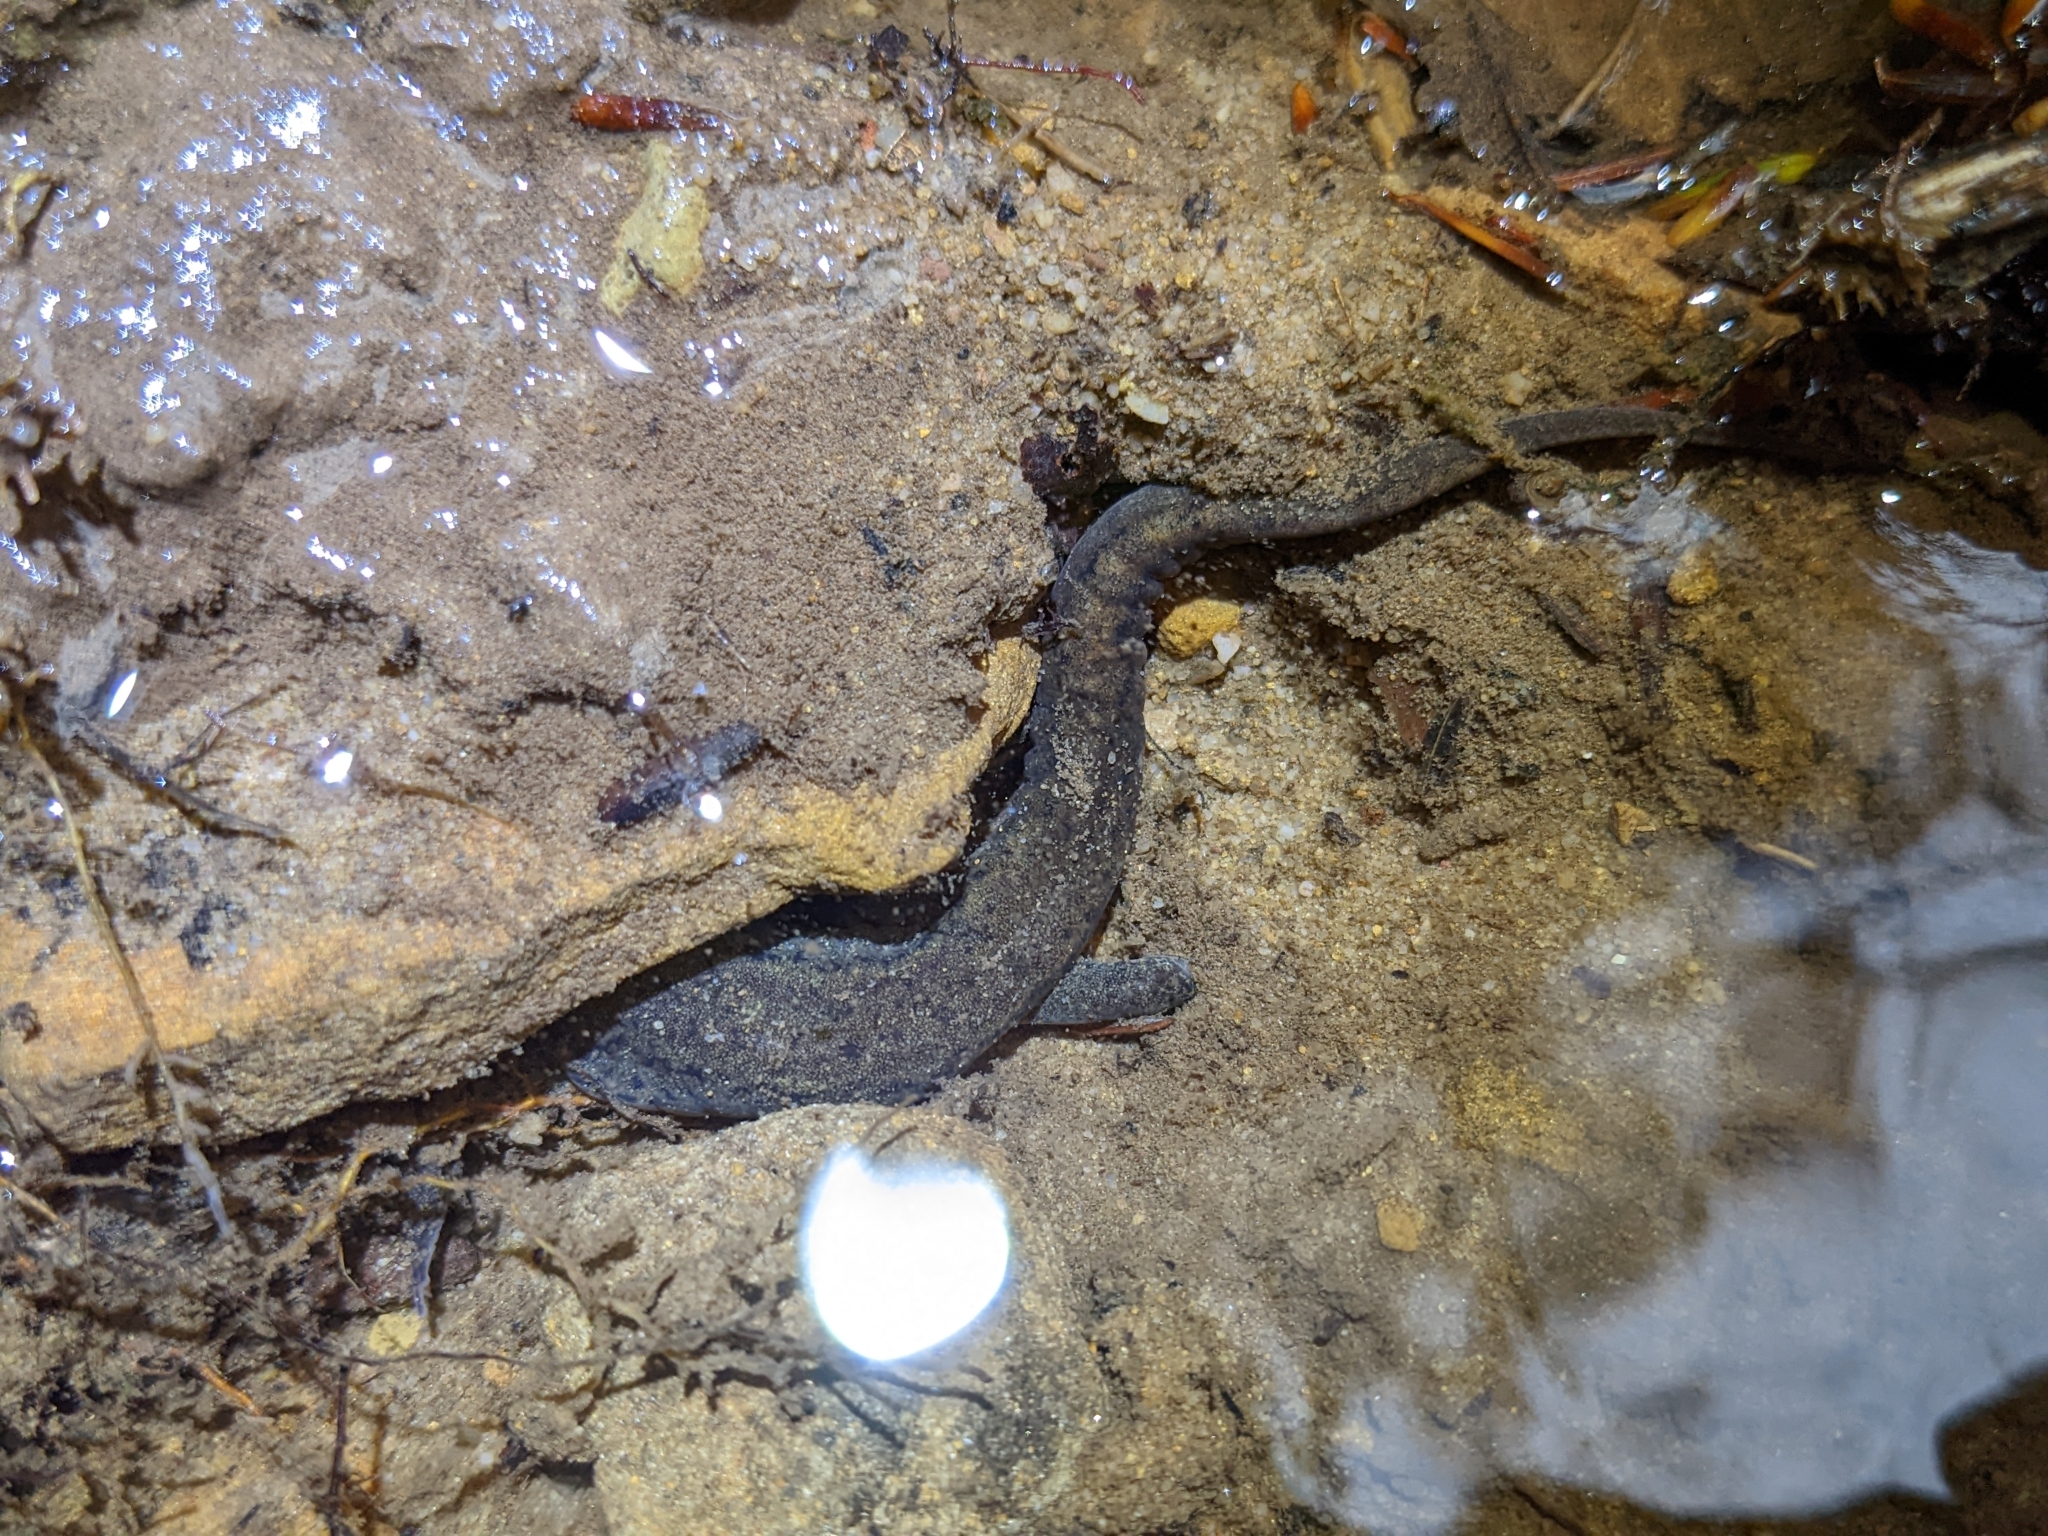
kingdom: Animalia
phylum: Chordata
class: Amphibia
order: Caudata
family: Plethodontidae
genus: Desmognathus
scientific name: Desmognathus fuscus
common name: Northern dusky salamander
